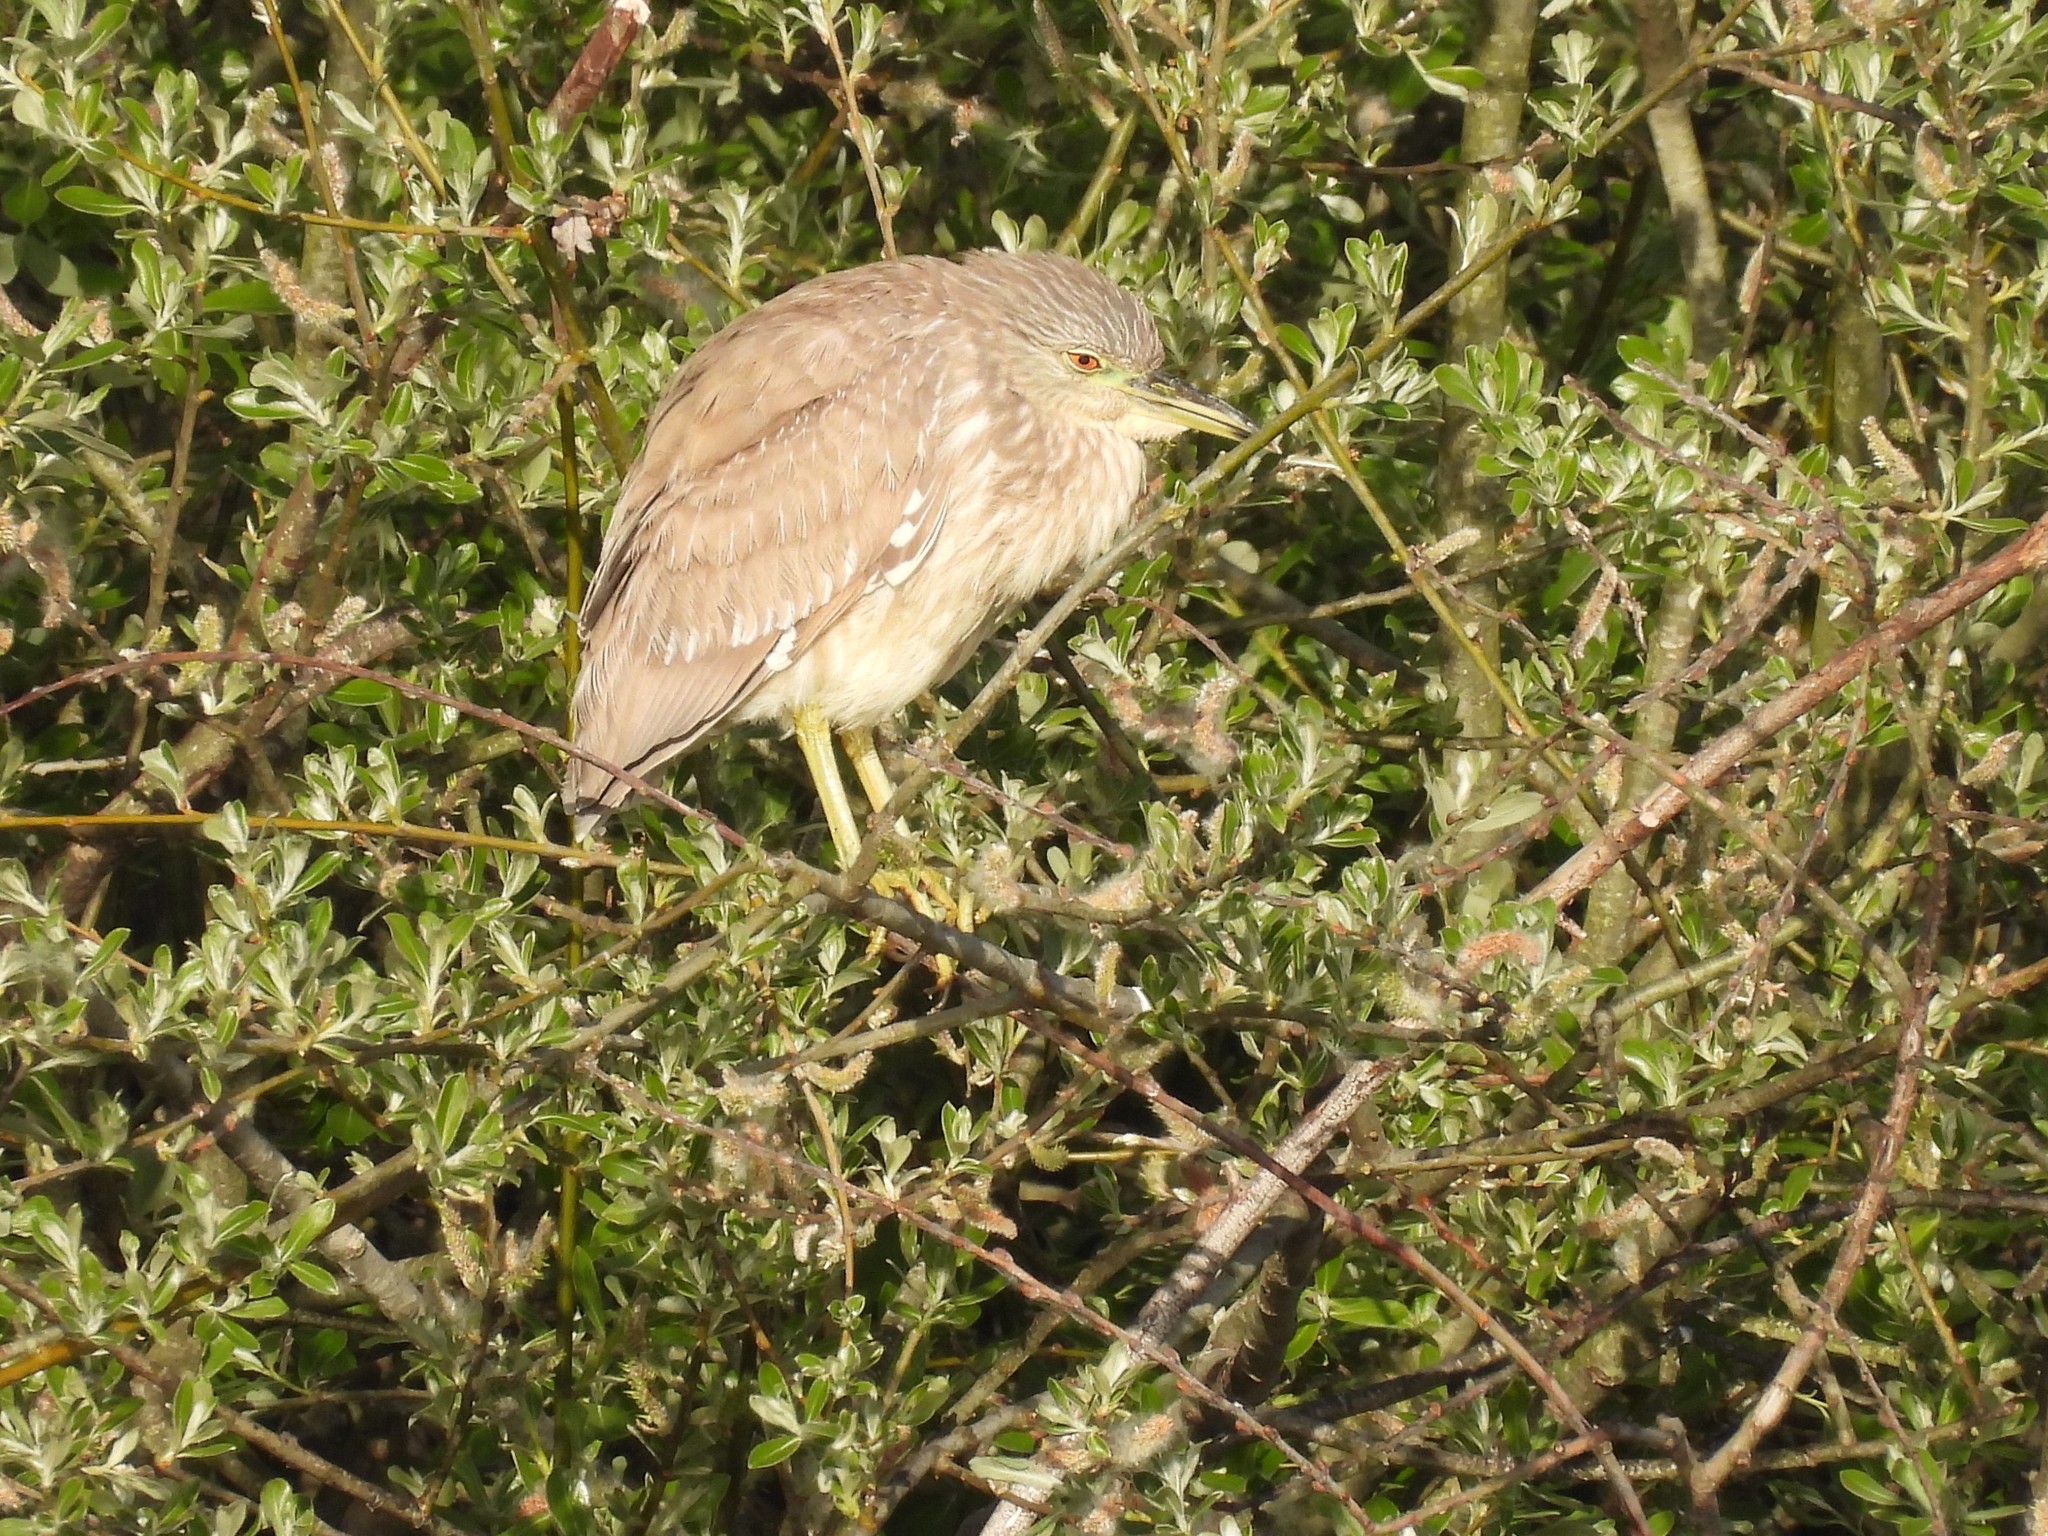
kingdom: Animalia
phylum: Chordata
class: Aves
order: Pelecaniformes
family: Ardeidae
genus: Nycticorax
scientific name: Nycticorax nycticorax
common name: Black-crowned night heron
